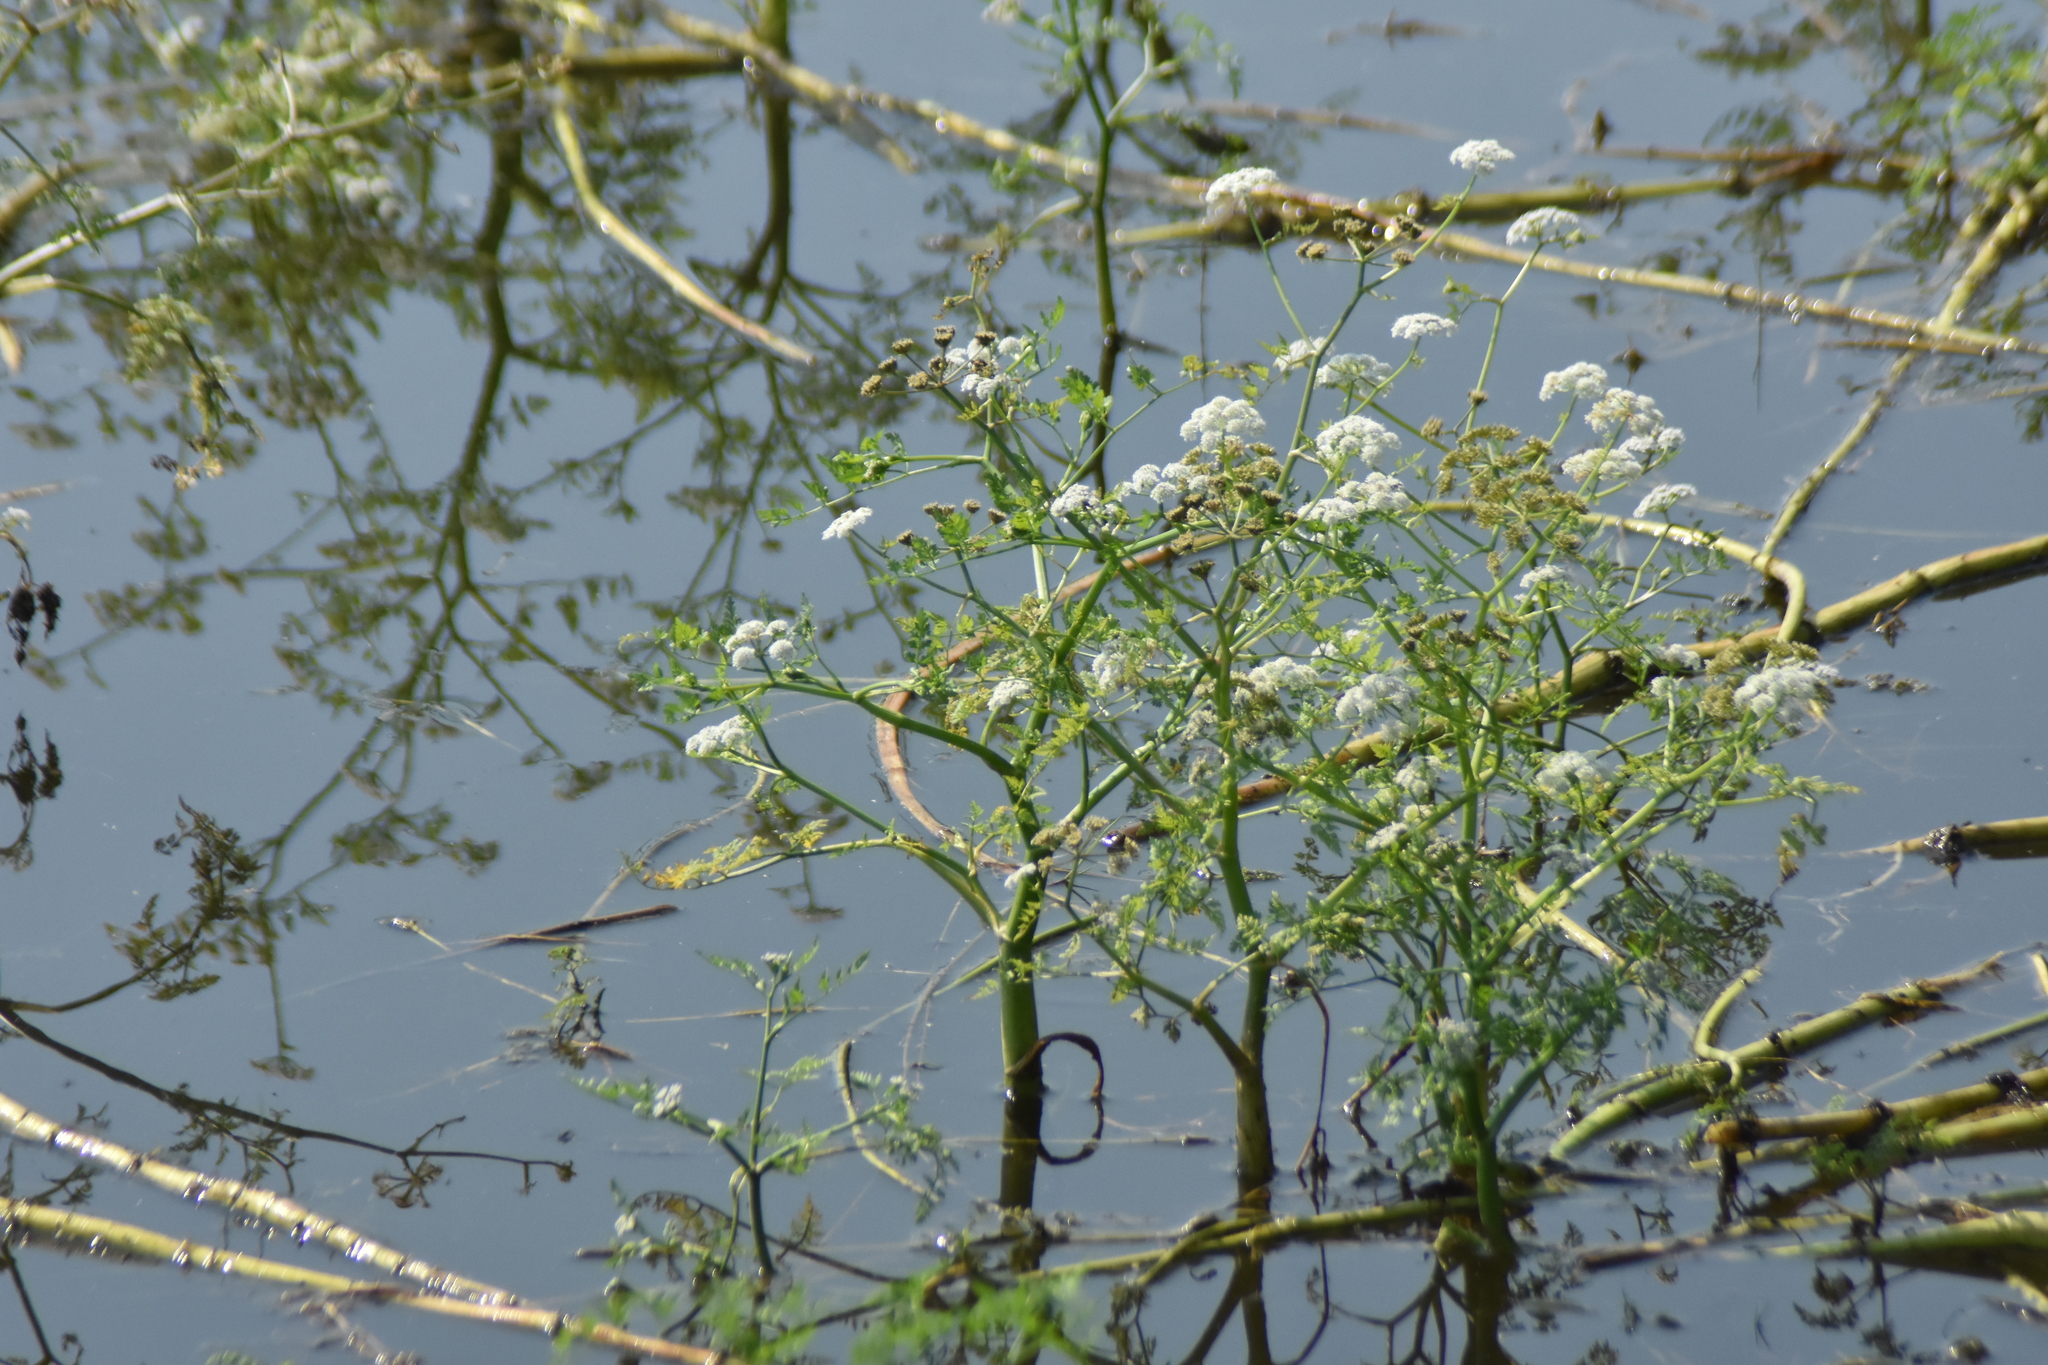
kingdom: Plantae
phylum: Tracheophyta
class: Magnoliopsida
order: Apiales
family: Apiaceae
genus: Oenanthe
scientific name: Oenanthe aquatica
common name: Fine-leaved water-dropwort
